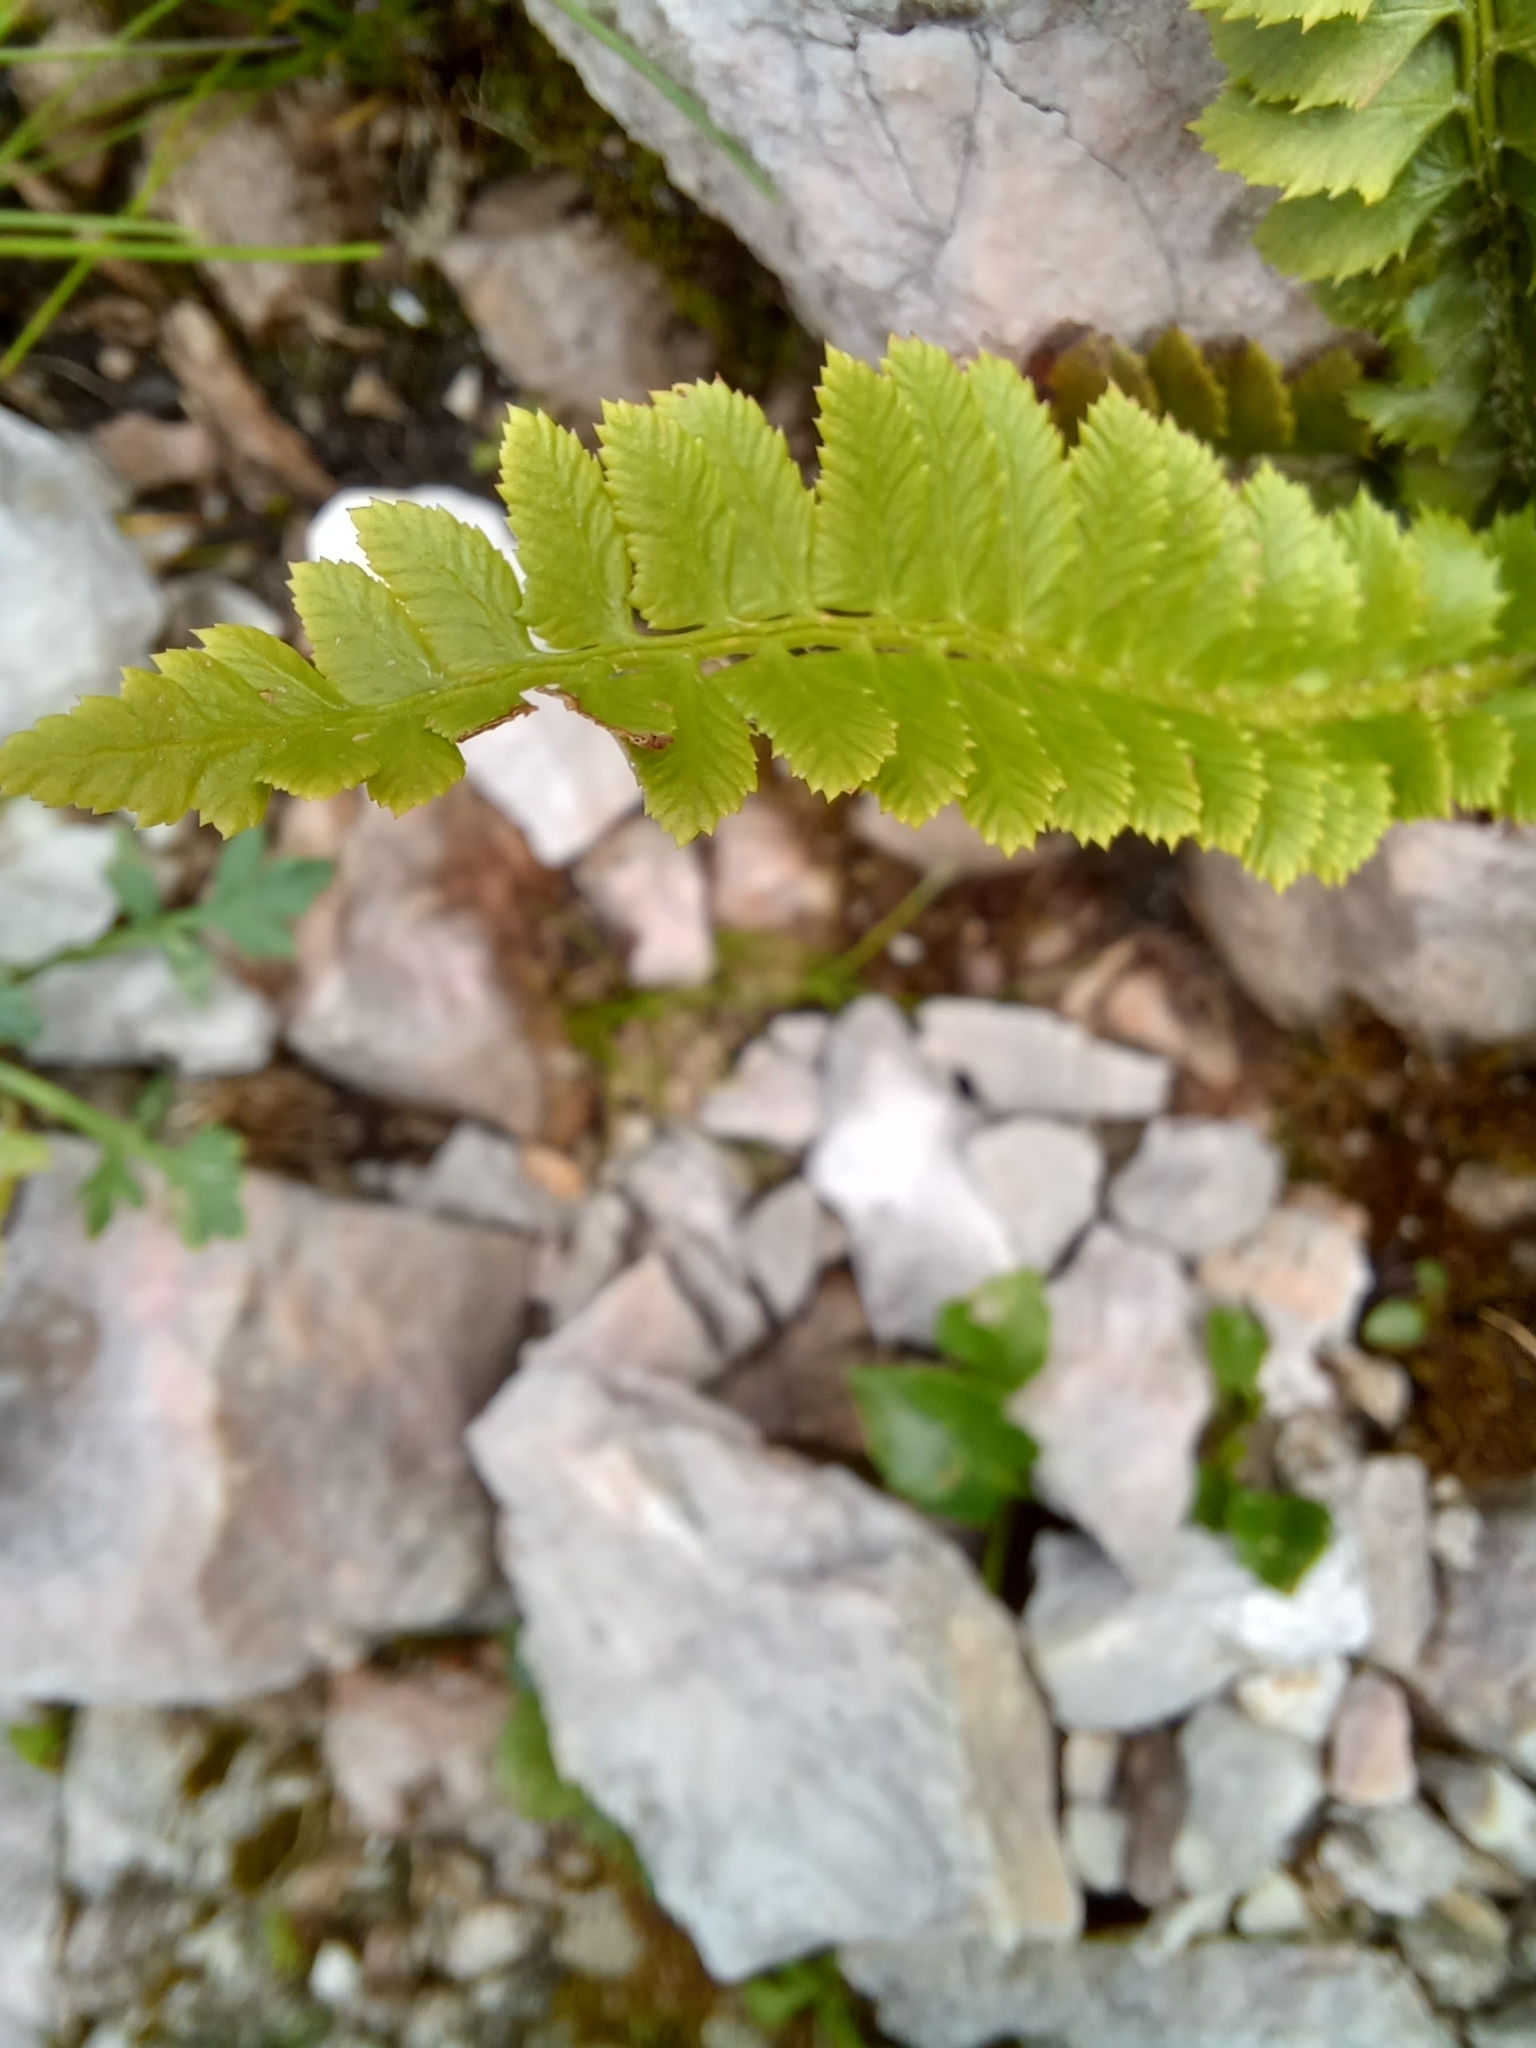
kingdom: Plantae
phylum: Tracheophyta
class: Polypodiopsida
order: Polypodiales
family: Dryopteridaceae
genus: Polystichum
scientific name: Polystichum lonchitis
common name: Holly fern
